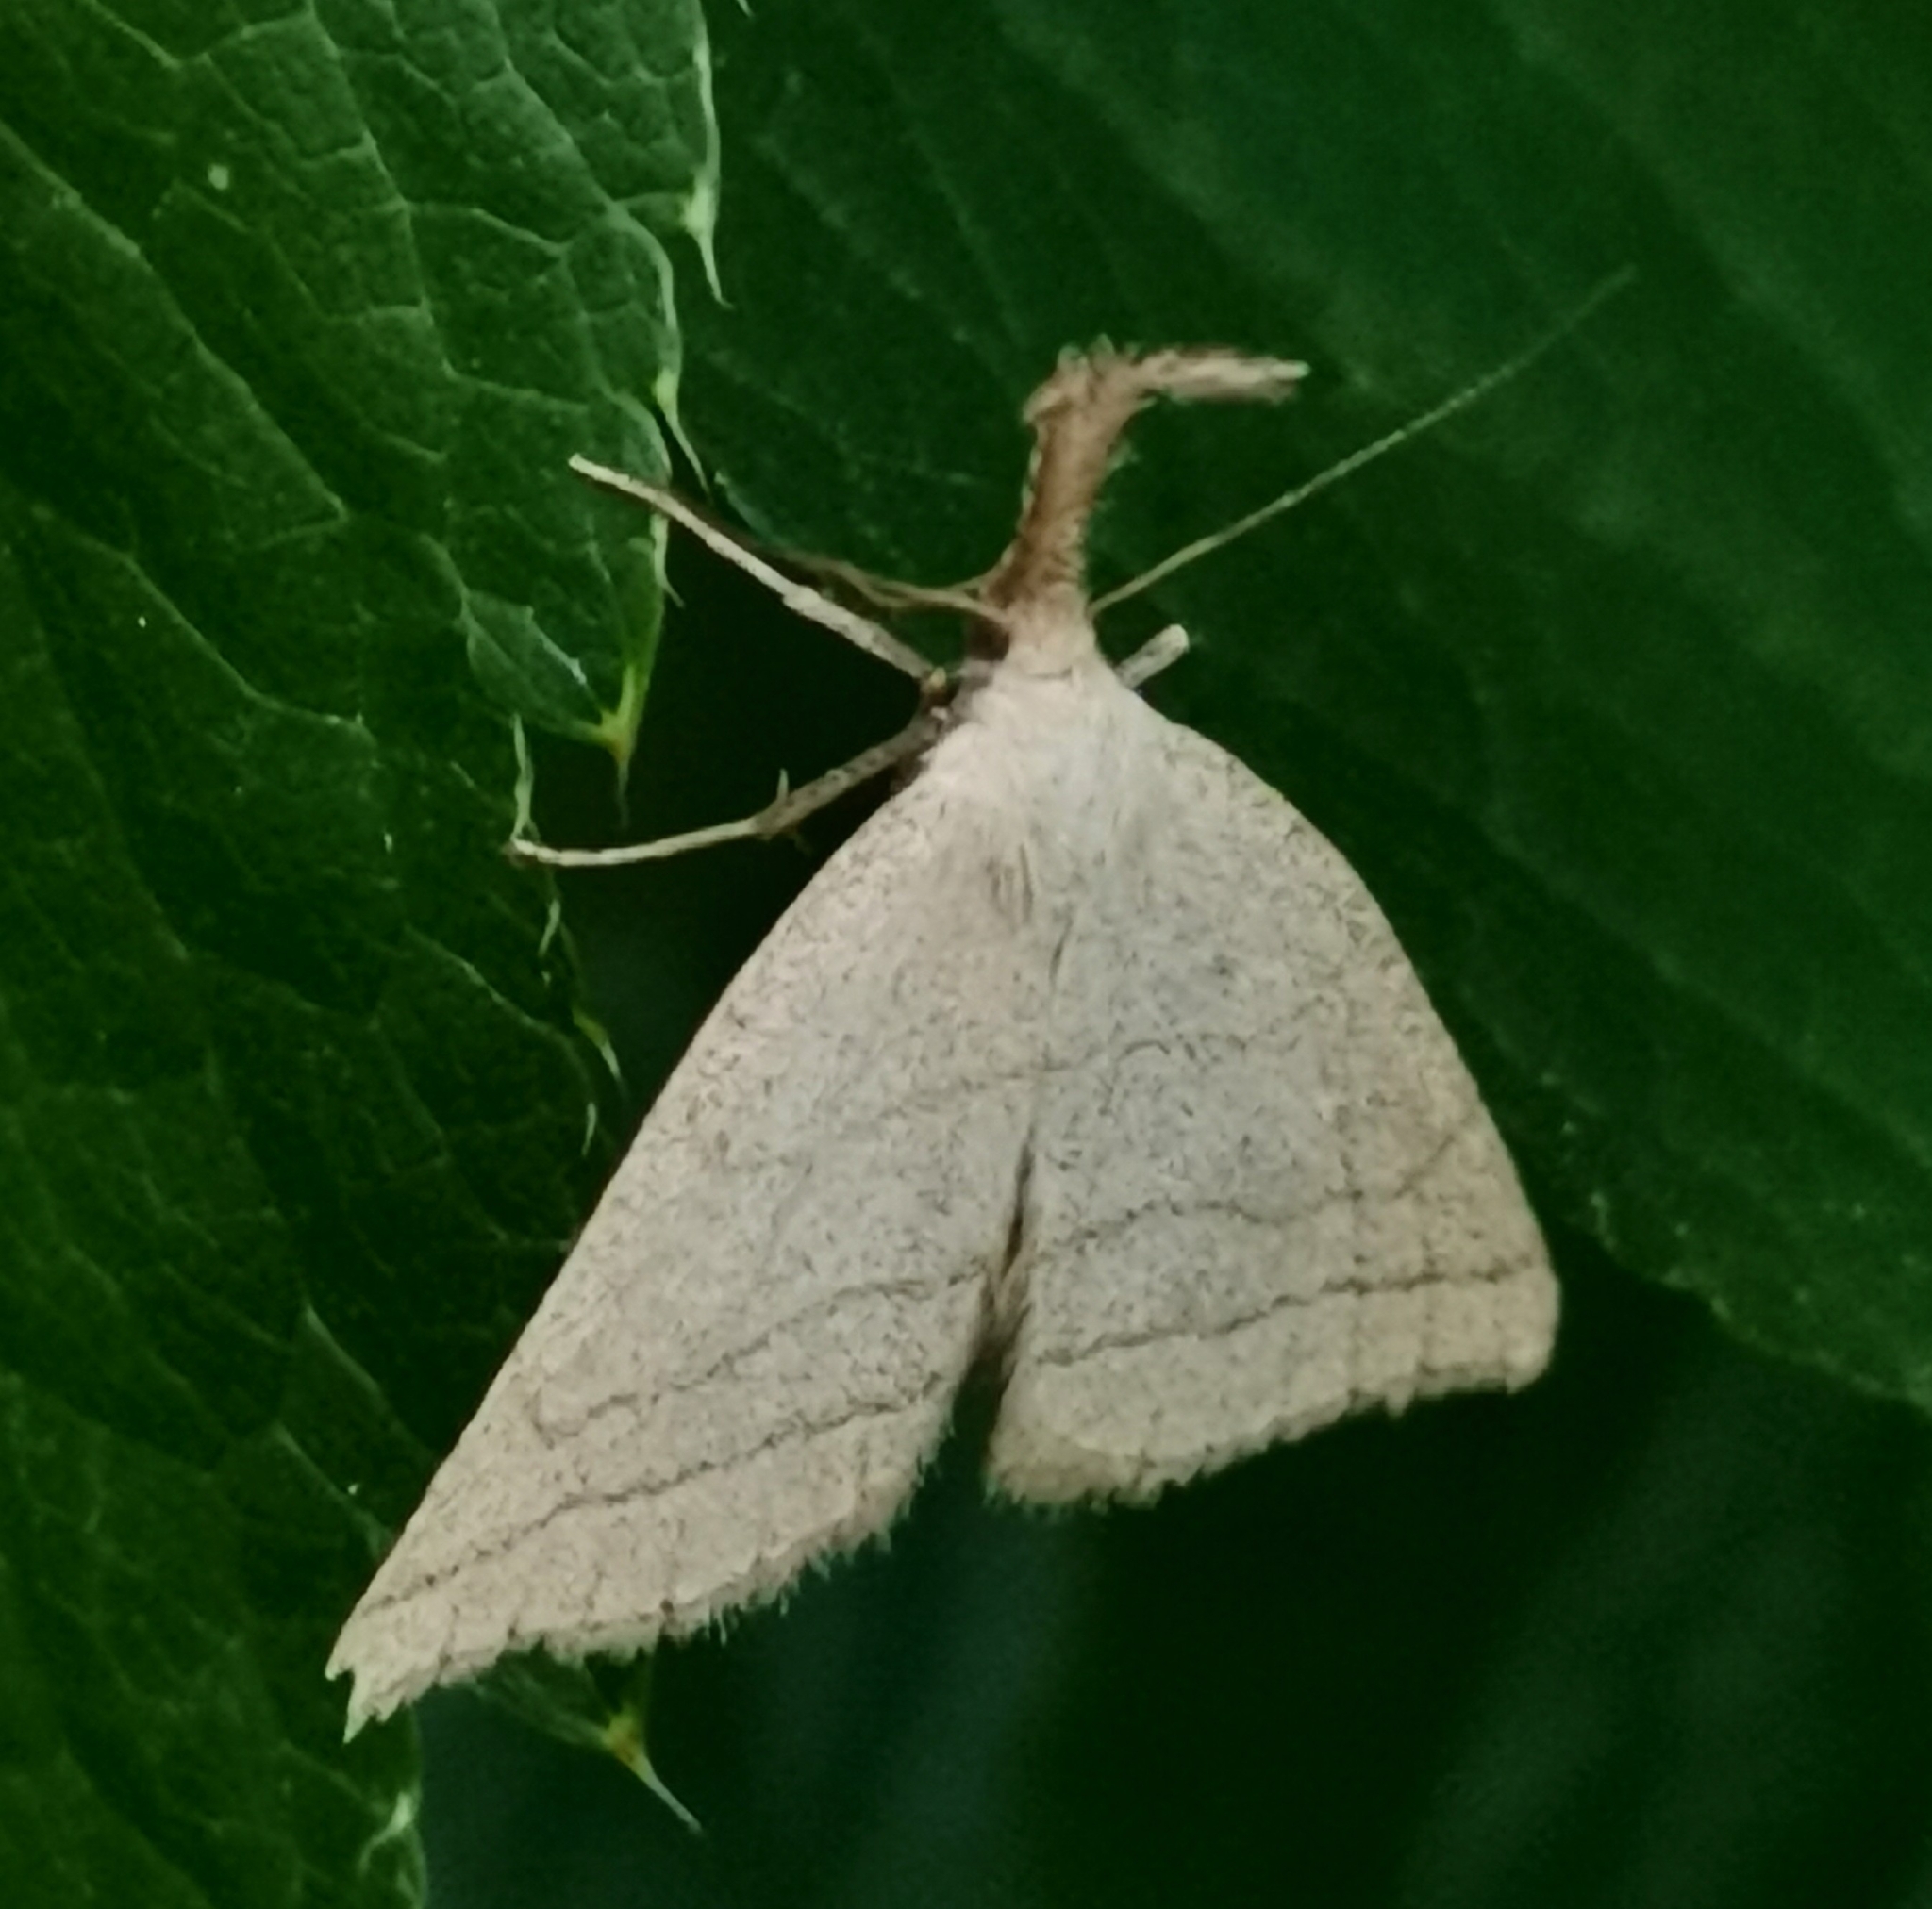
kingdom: Animalia
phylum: Arthropoda
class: Insecta
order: Lepidoptera
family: Erebidae
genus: Polypogon
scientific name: Polypogon tentacularia
